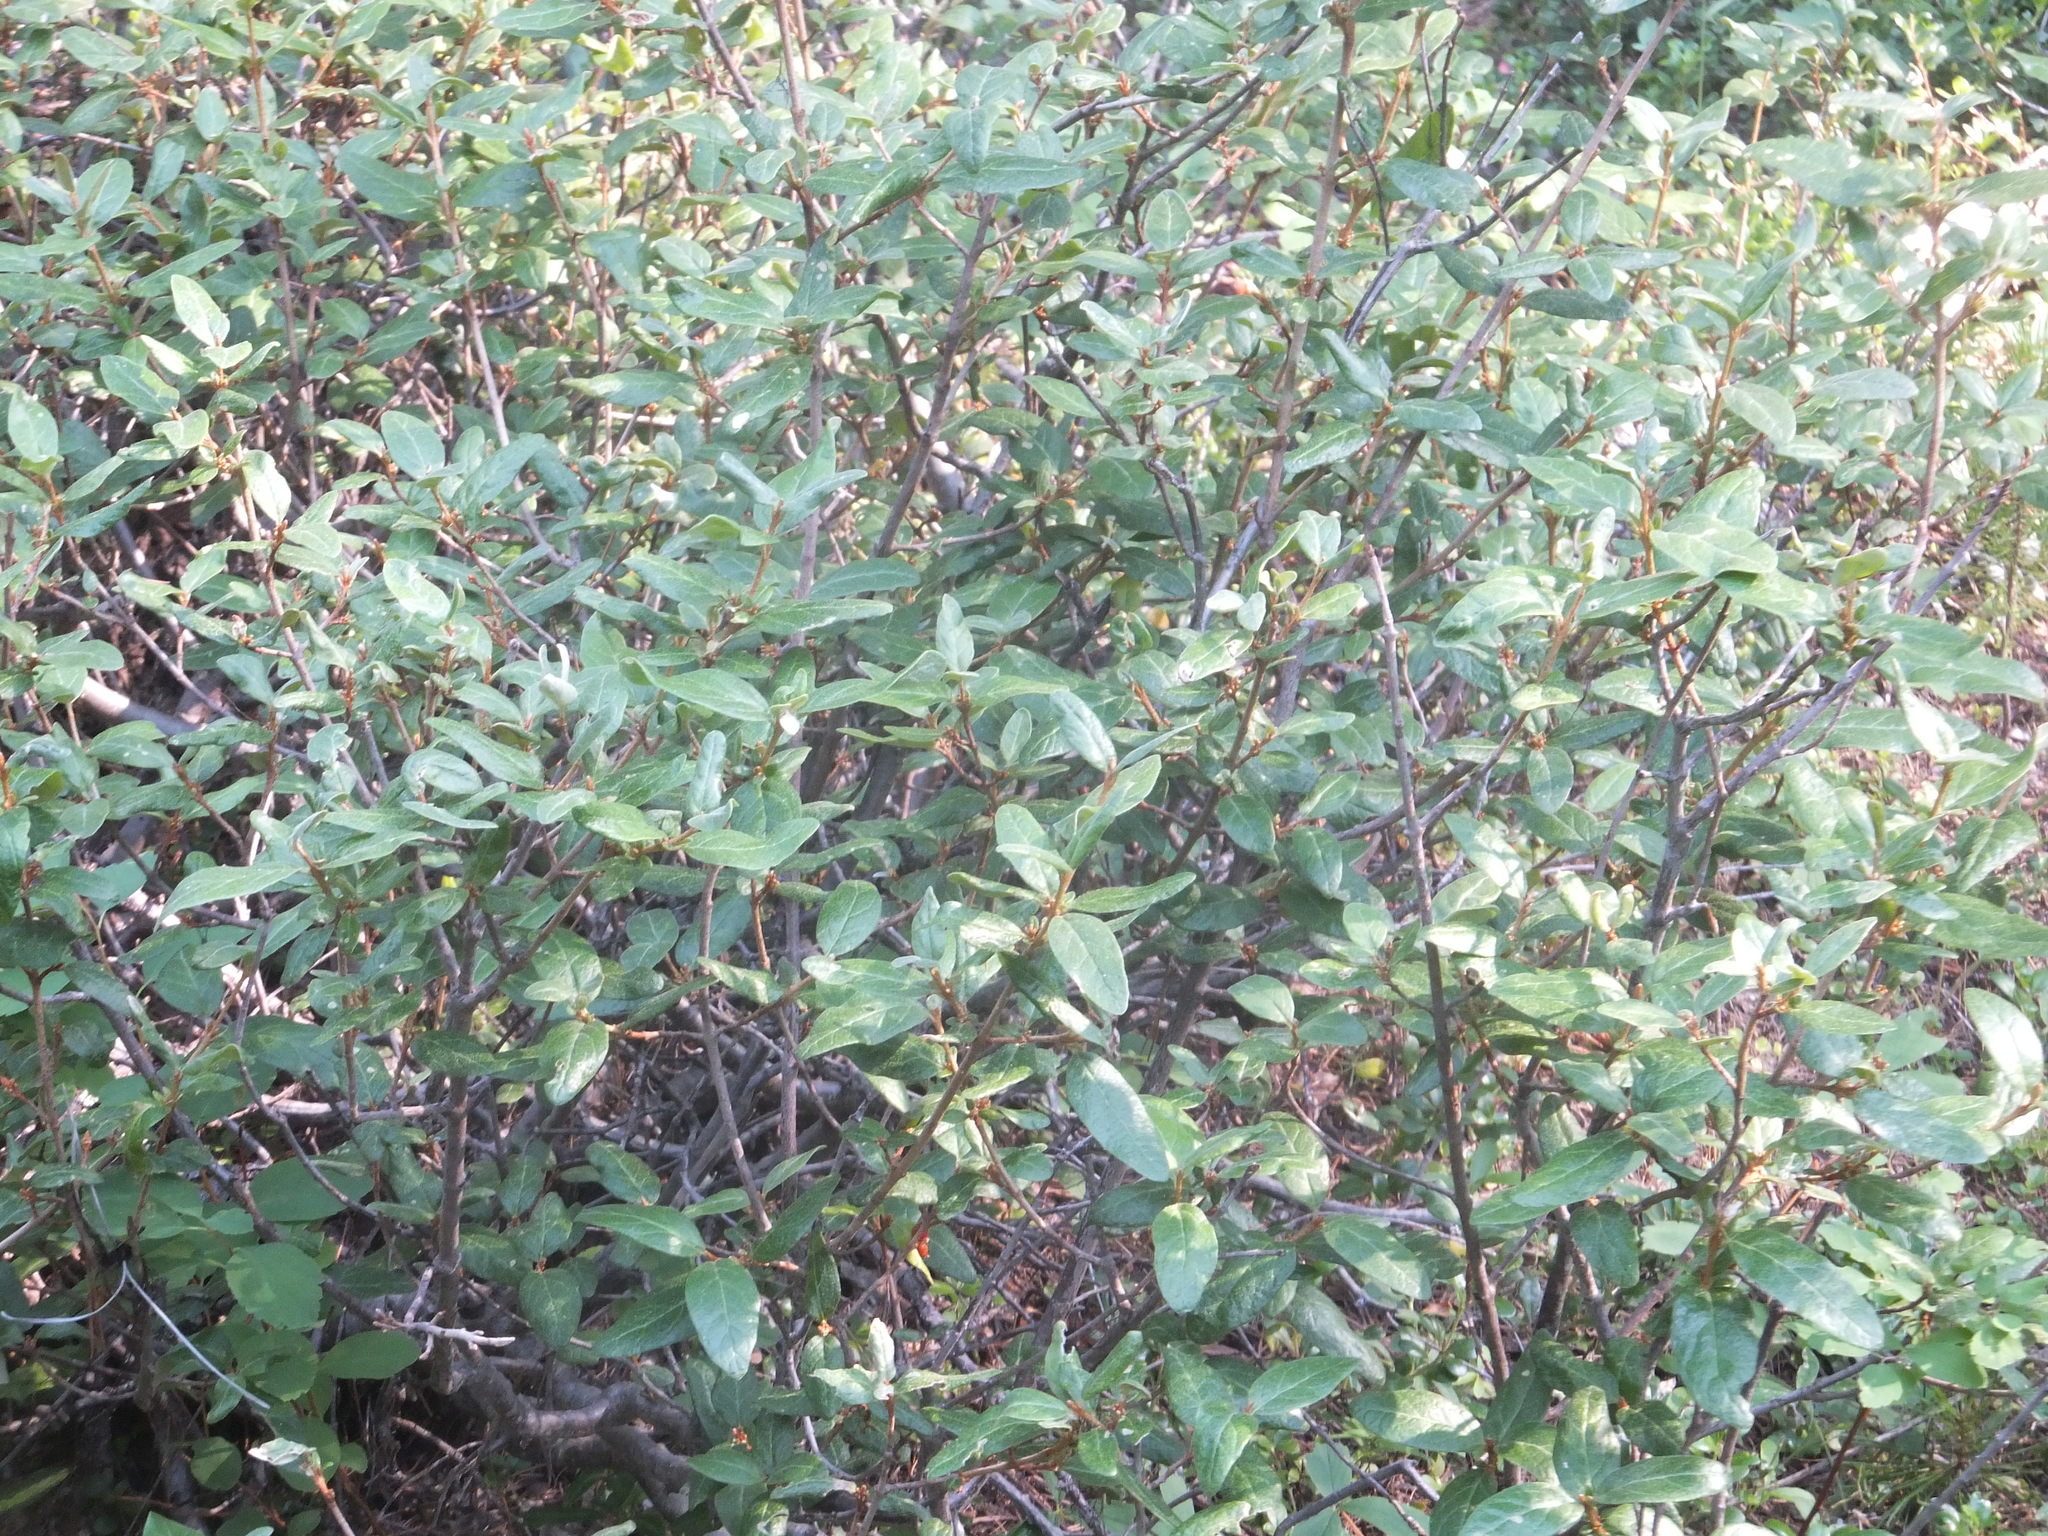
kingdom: Plantae
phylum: Tracheophyta
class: Magnoliopsida
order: Rosales
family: Elaeagnaceae
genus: Shepherdia
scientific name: Shepherdia canadensis
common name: Soapberry
